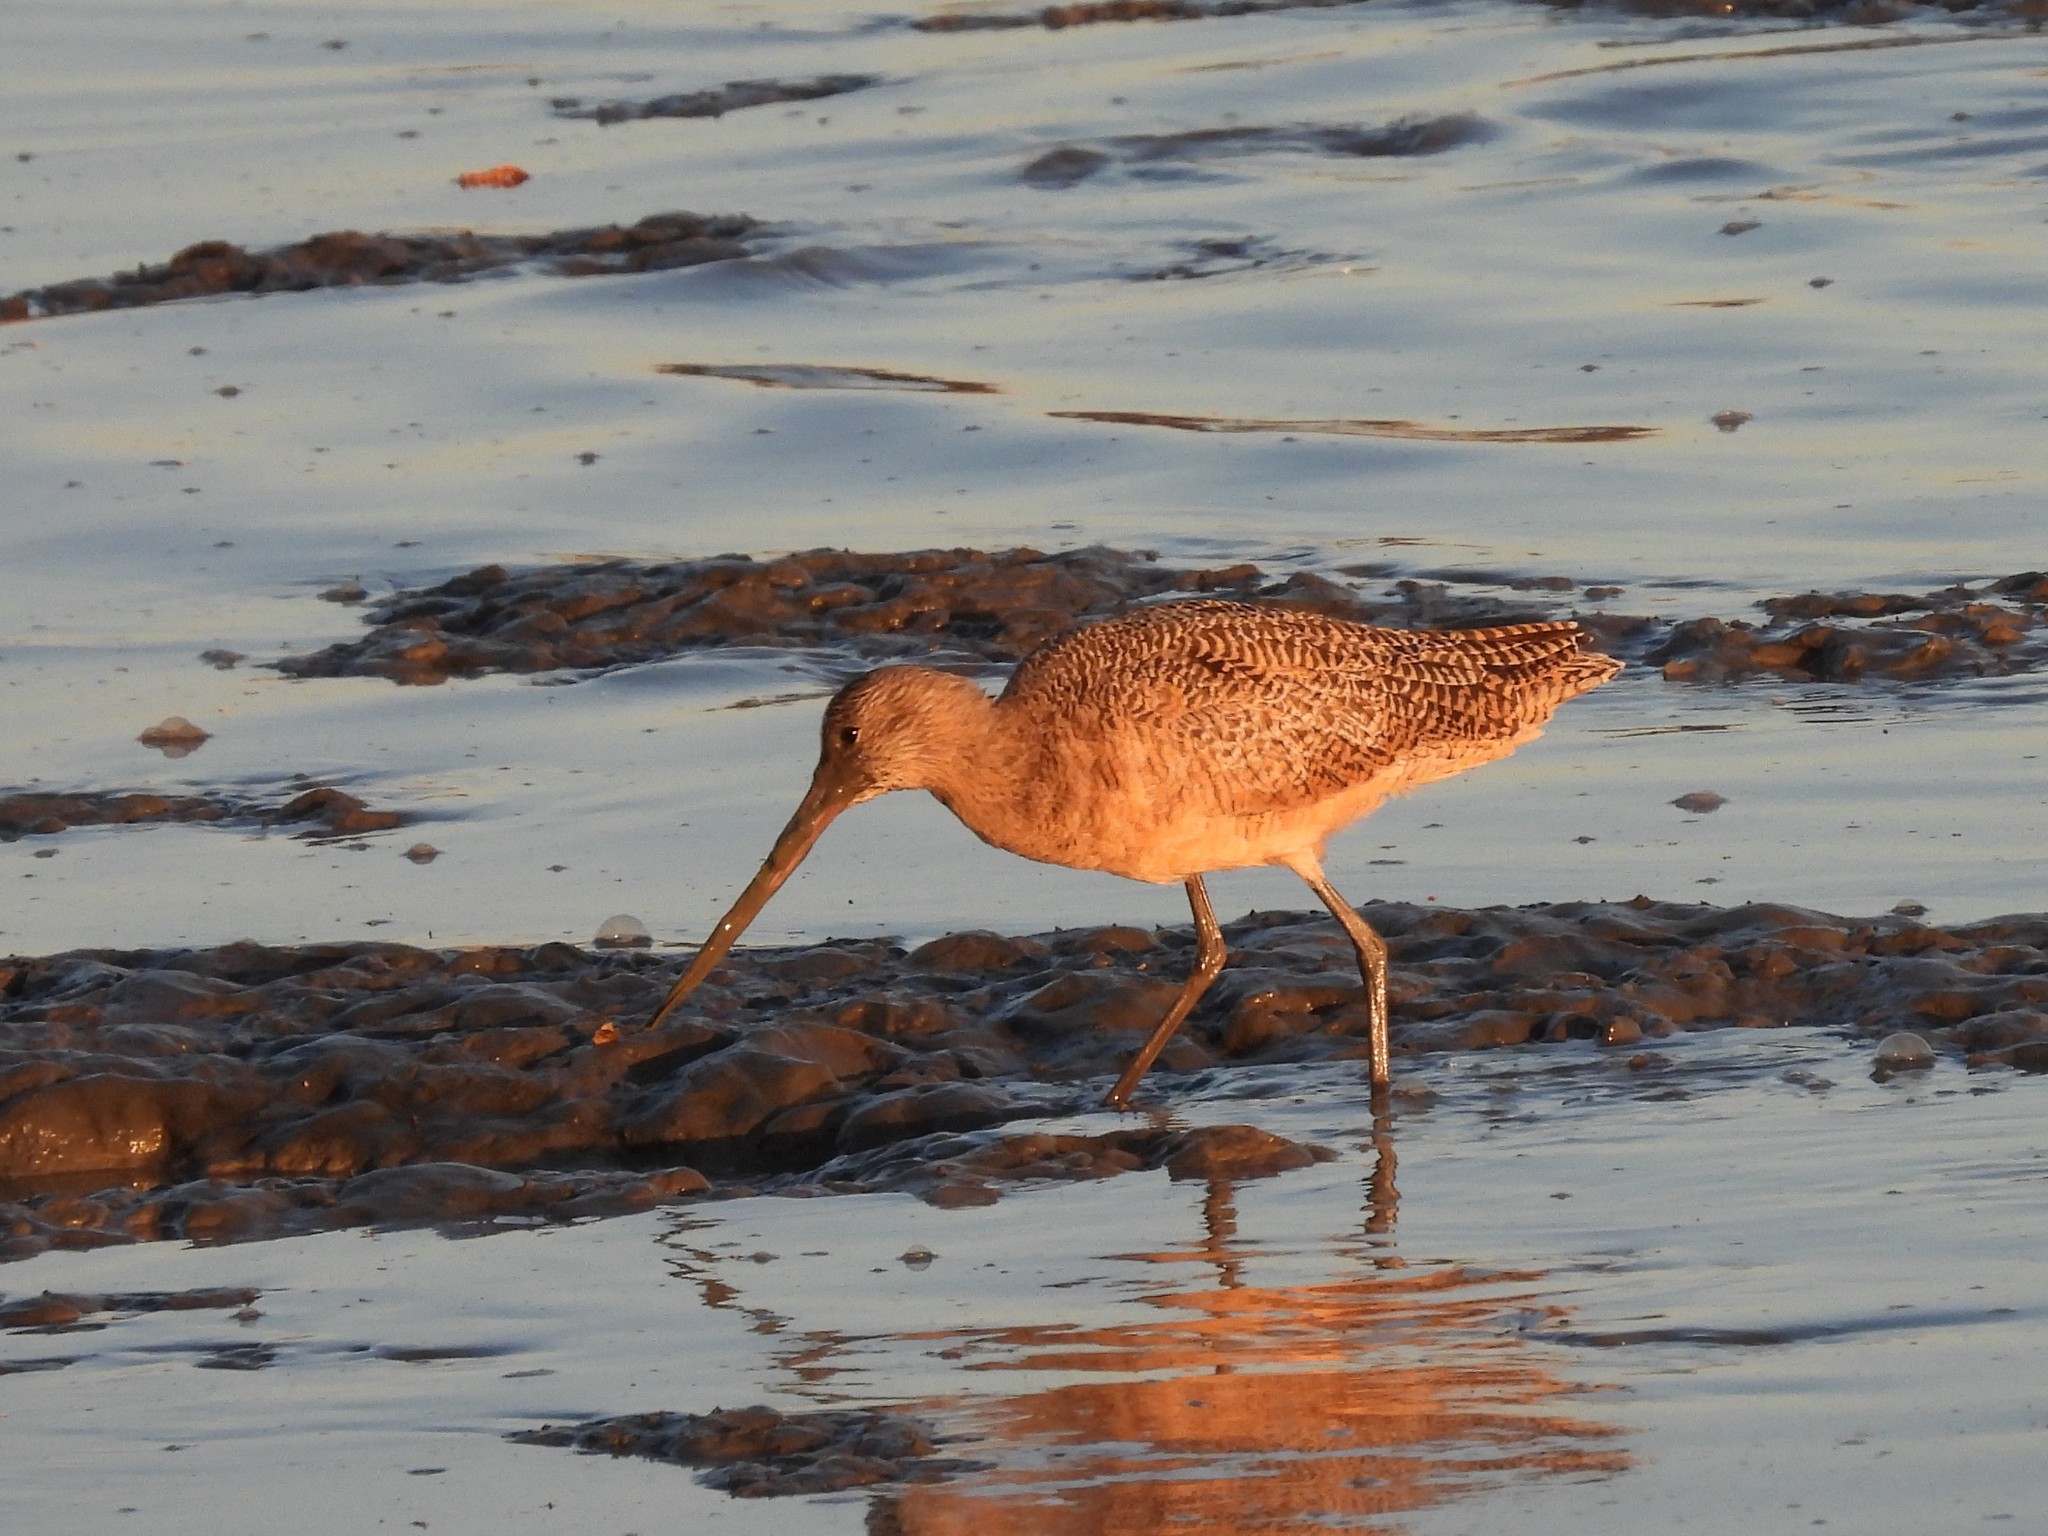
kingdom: Animalia
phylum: Chordata
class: Aves
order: Charadriiformes
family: Scolopacidae
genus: Limosa
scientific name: Limosa fedoa
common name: Marbled godwit
